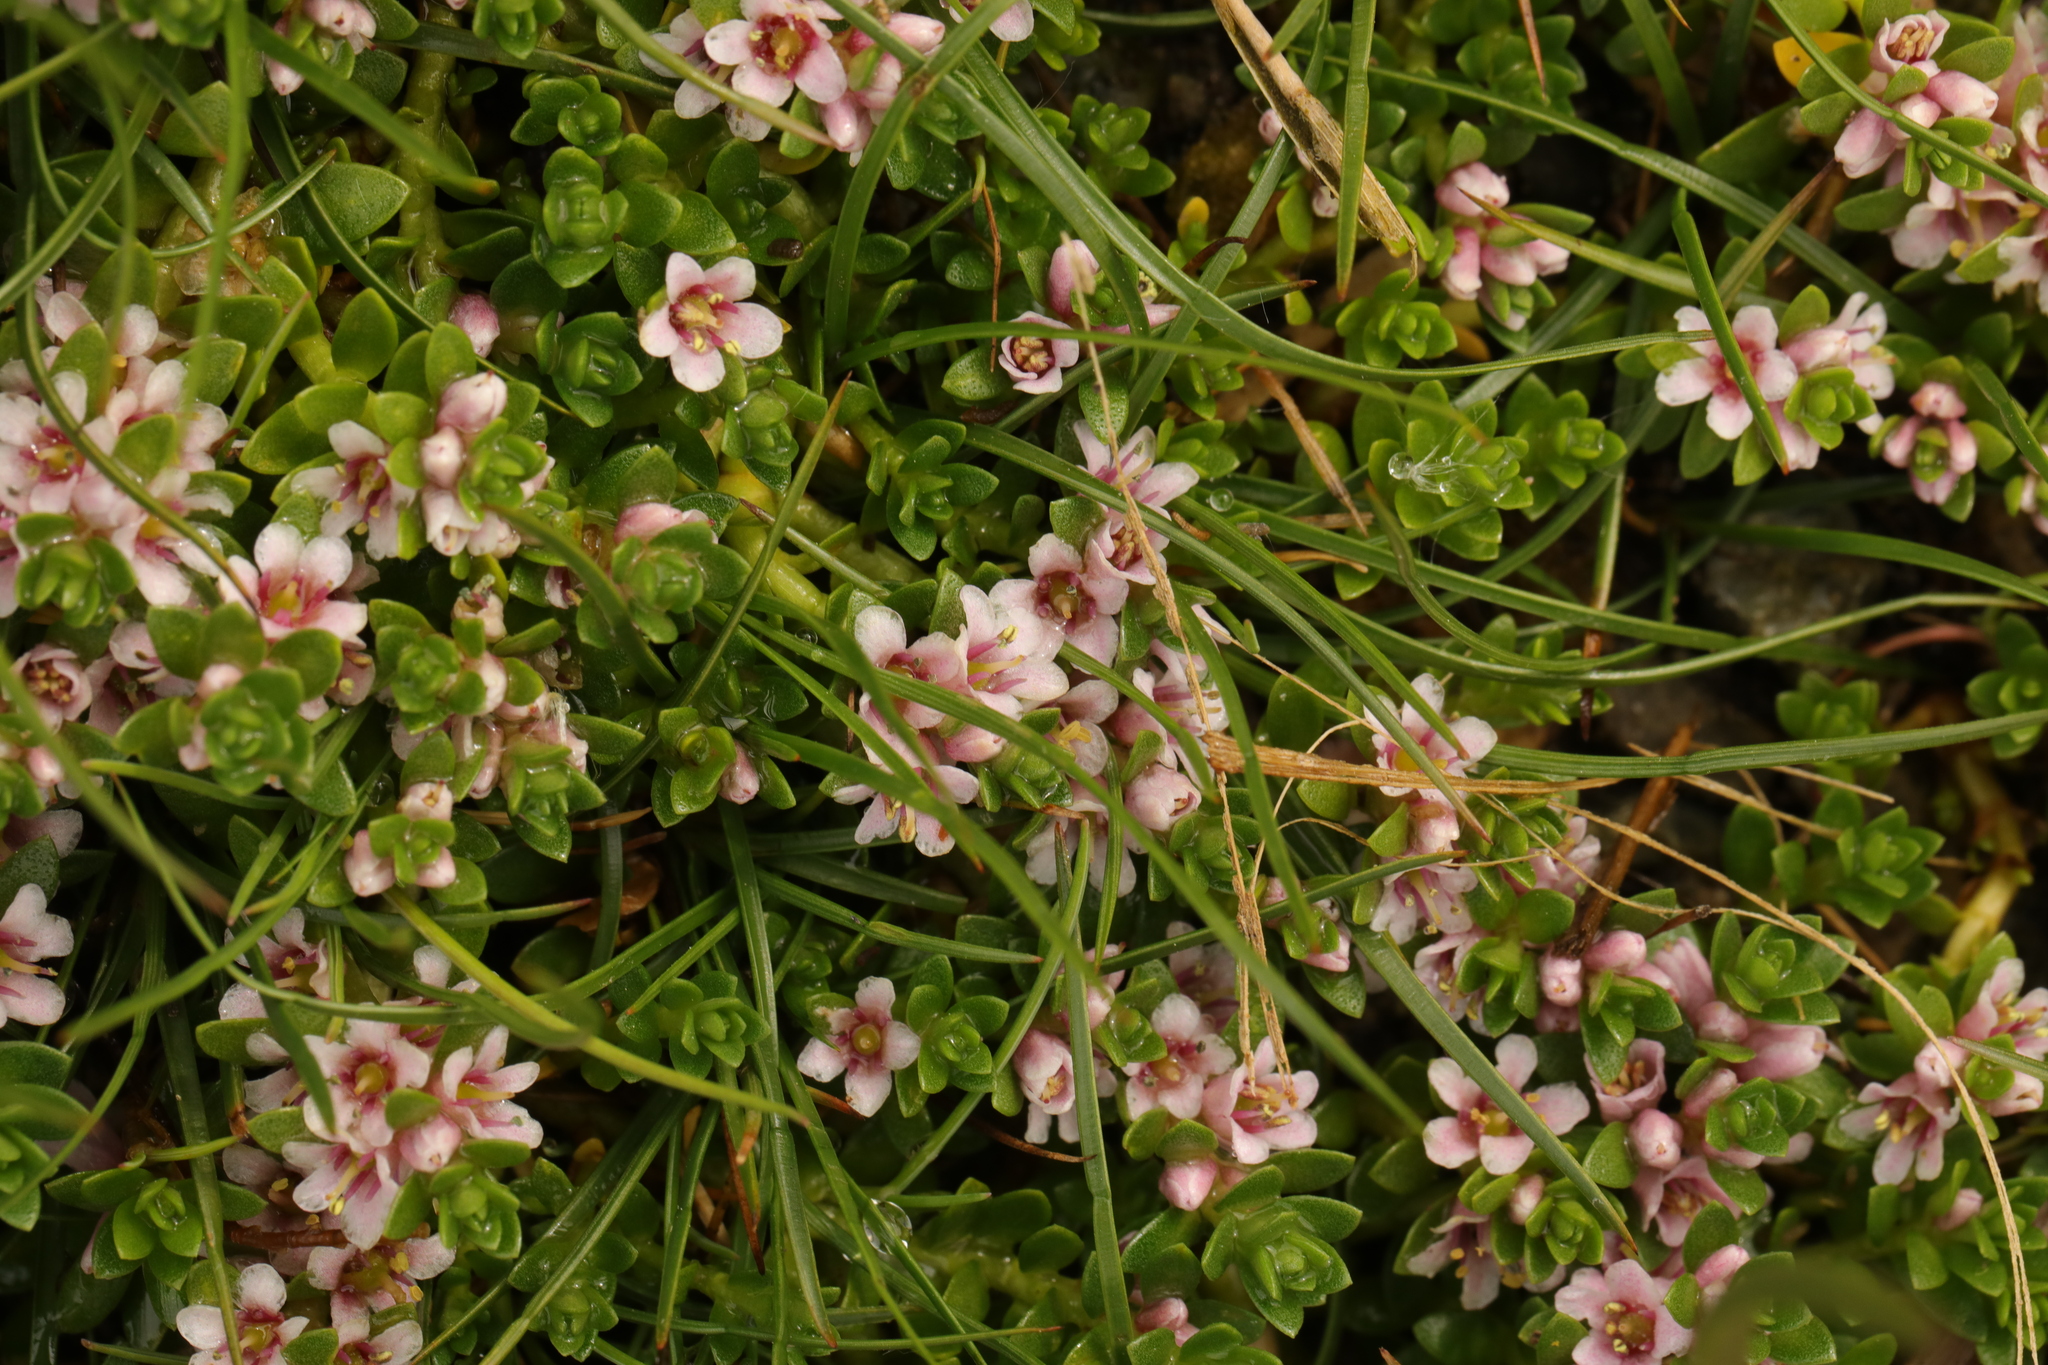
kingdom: Plantae
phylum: Tracheophyta
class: Magnoliopsida
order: Ericales
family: Primulaceae
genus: Lysimachia
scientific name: Lysimachia maritima
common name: Sea milkwort
